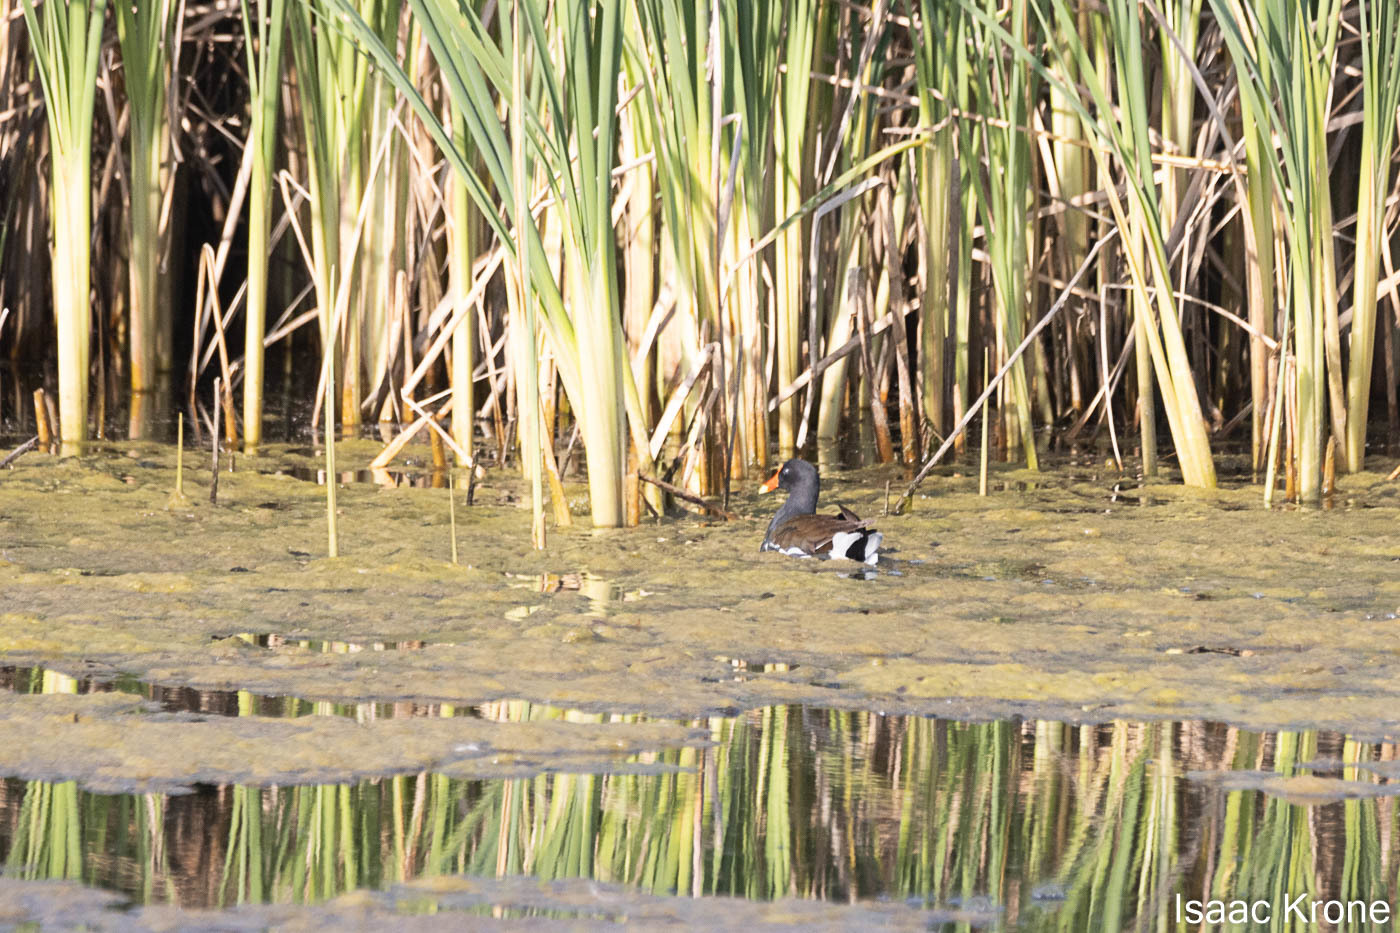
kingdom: Animalia
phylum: Chordata
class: Aves
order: Gruiformes
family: Rallidae
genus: Gallinula
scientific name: Gallinula chloropus
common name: Common moorhen
